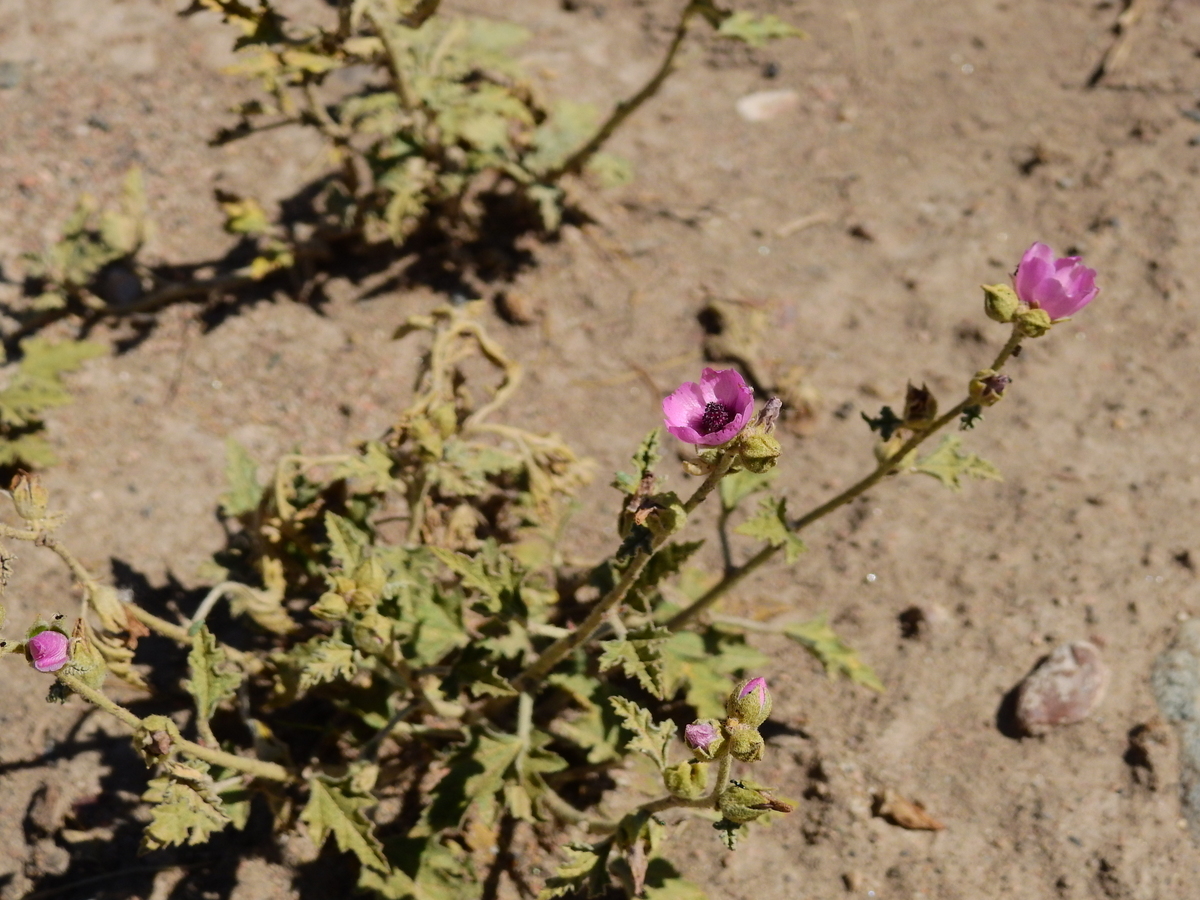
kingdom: Plantae
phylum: Tracheophyta
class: Magnoliopsida
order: Malvales
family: Malvaceae
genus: Sphaeralcea
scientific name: Sphaeralcea mendocina
